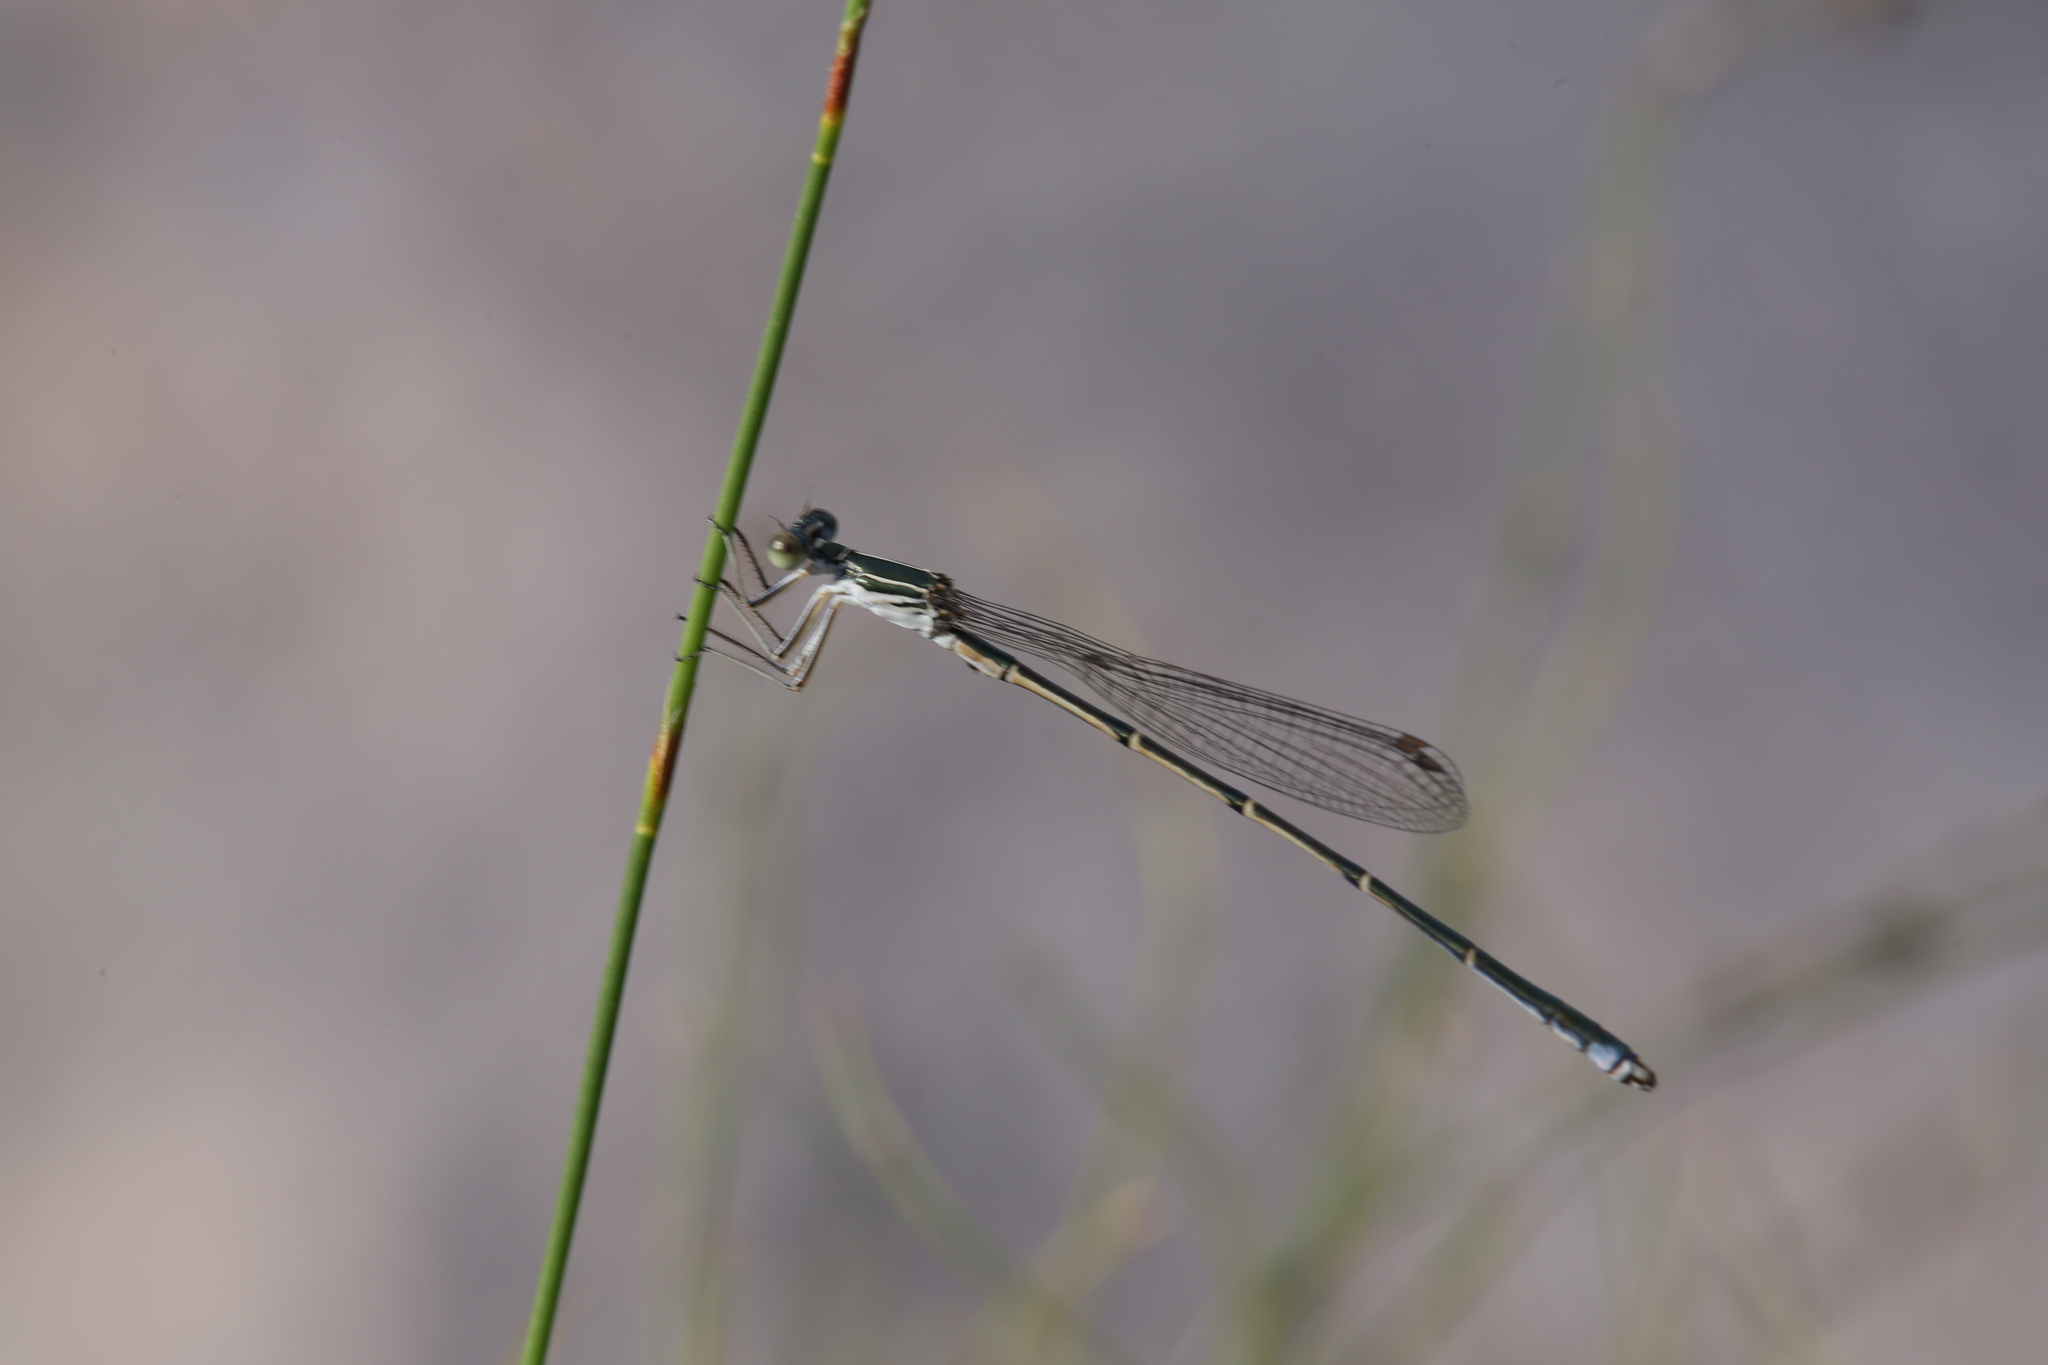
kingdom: Animalia
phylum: Arthropoda
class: Insecta
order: Odonata
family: Isostictidae
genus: Austrosticta
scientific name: Austrosticta fieldi
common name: Northern pondsitter
